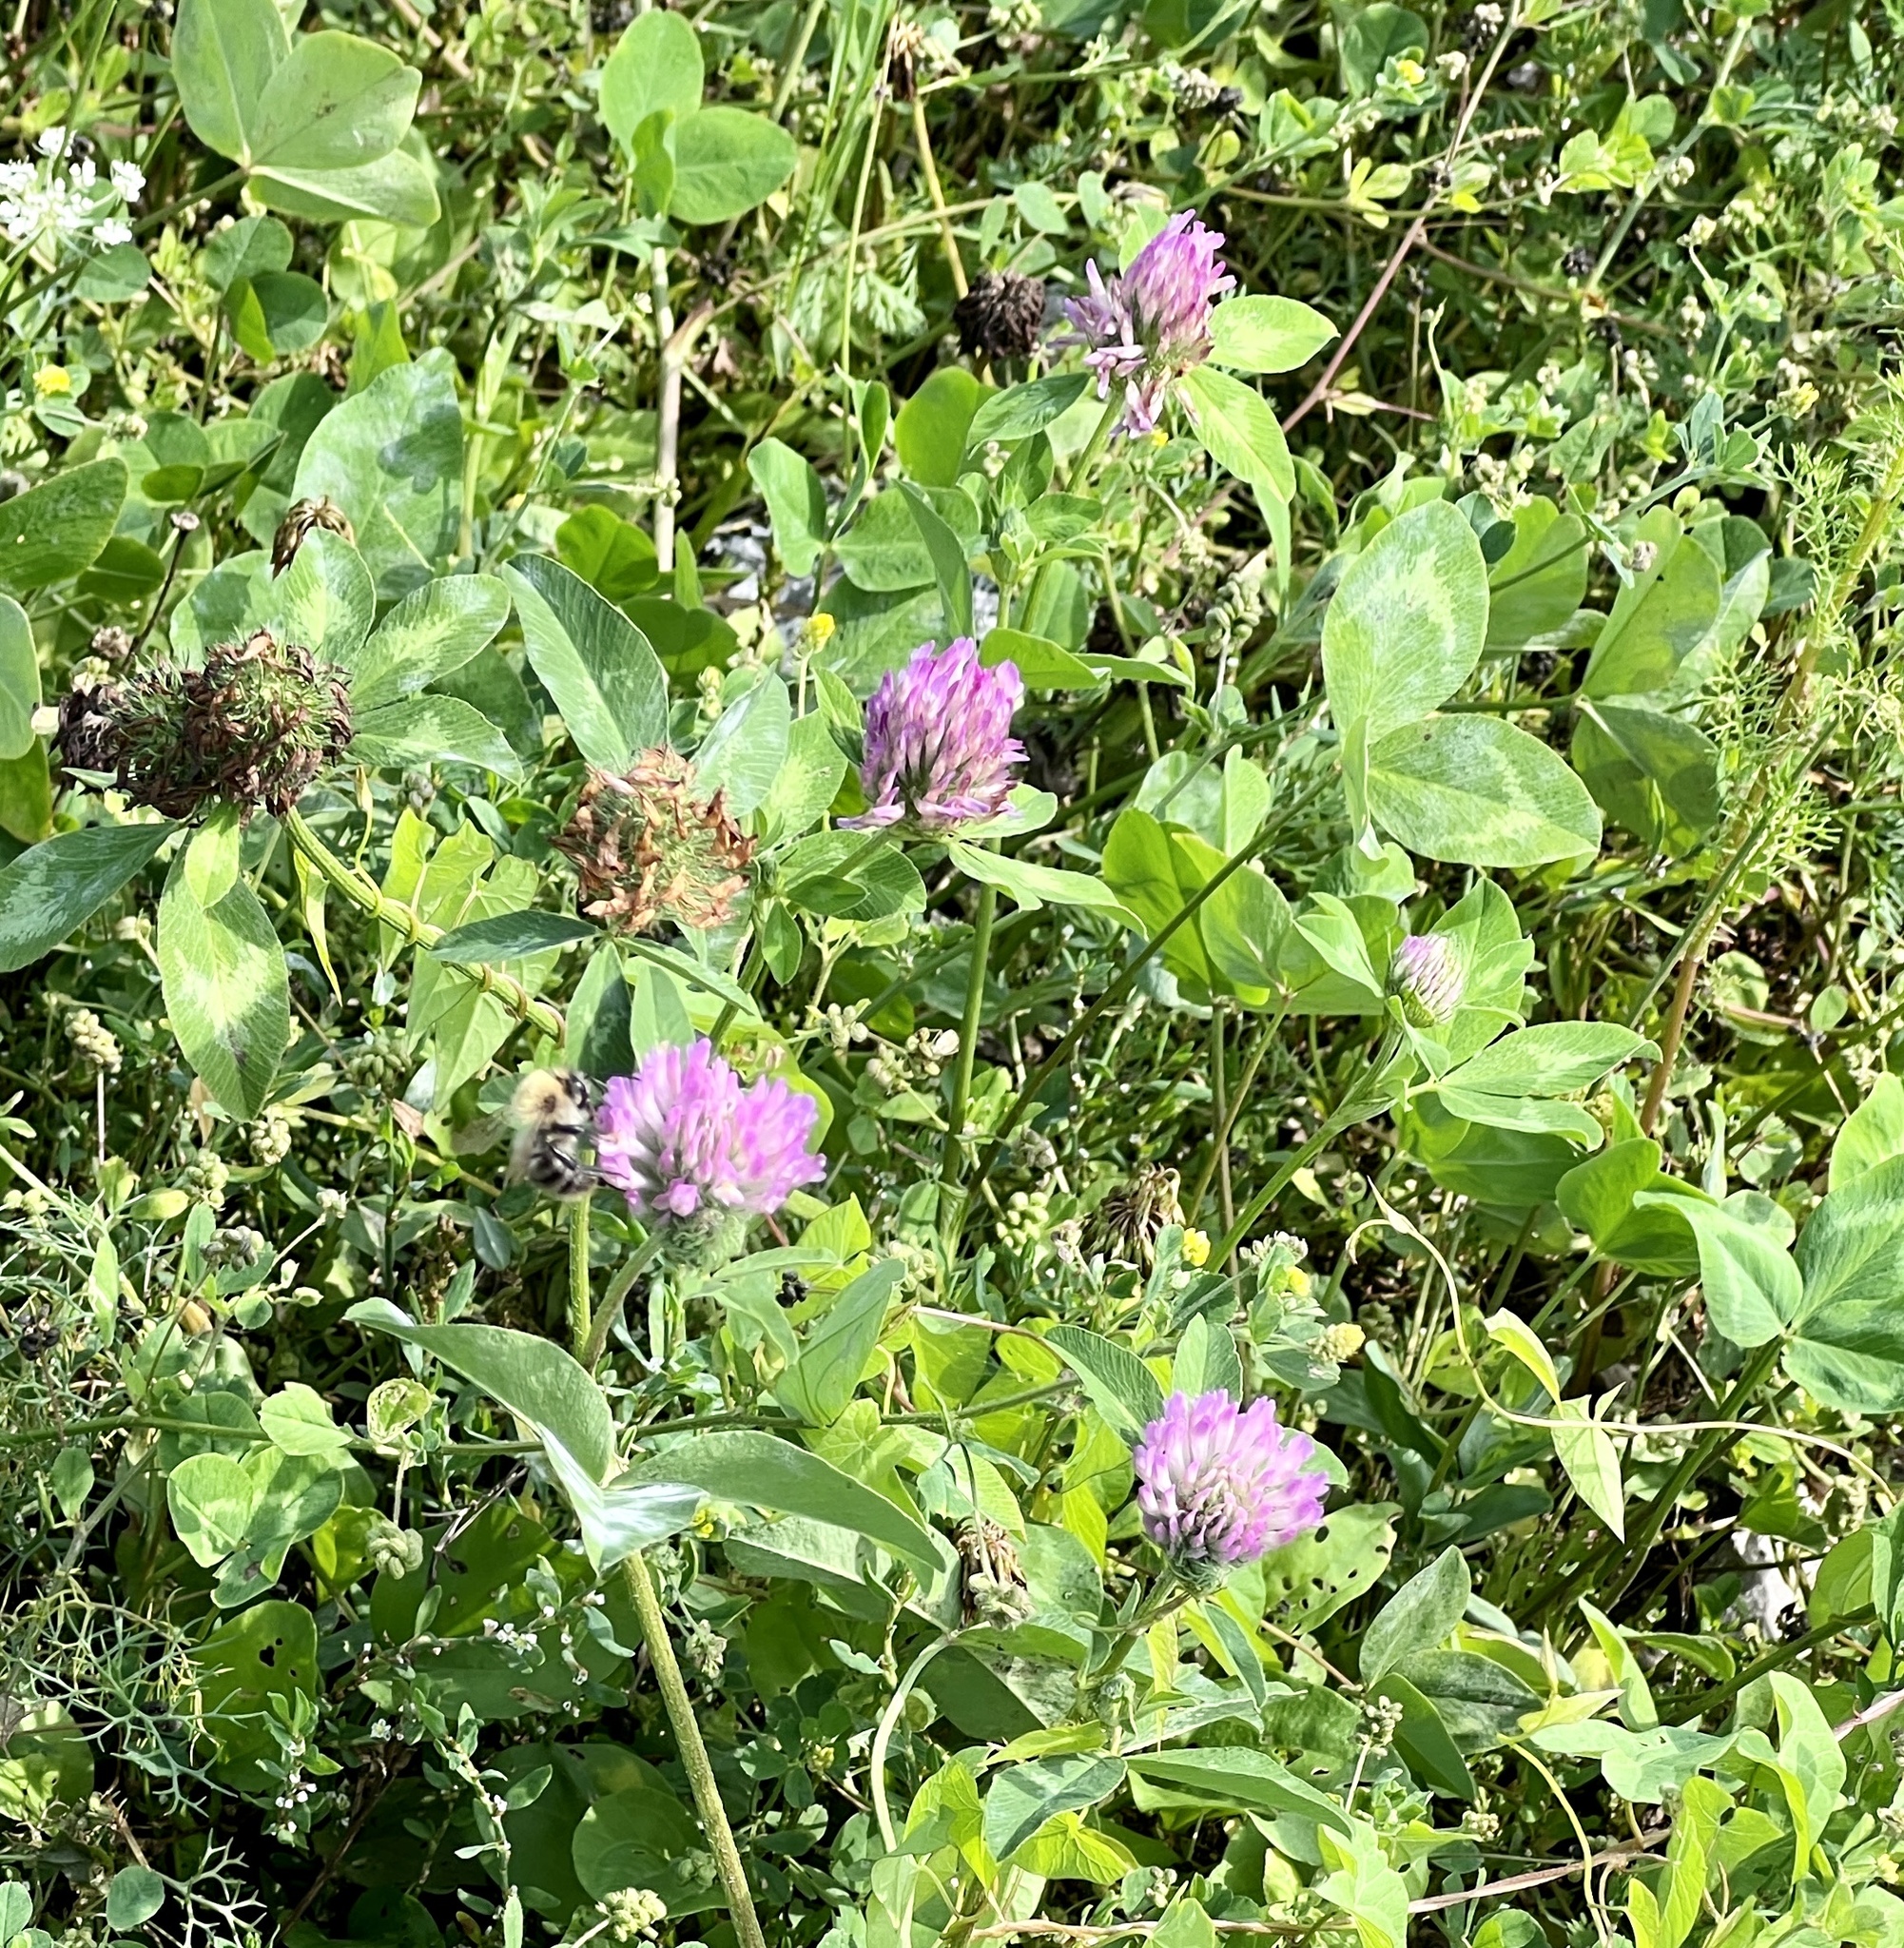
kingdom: Plantae
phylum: Tracheophyta
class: Magnoliopsida
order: Fabales
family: Fabaceae
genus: Trifolium
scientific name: Trifolium pratense
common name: Red clover
